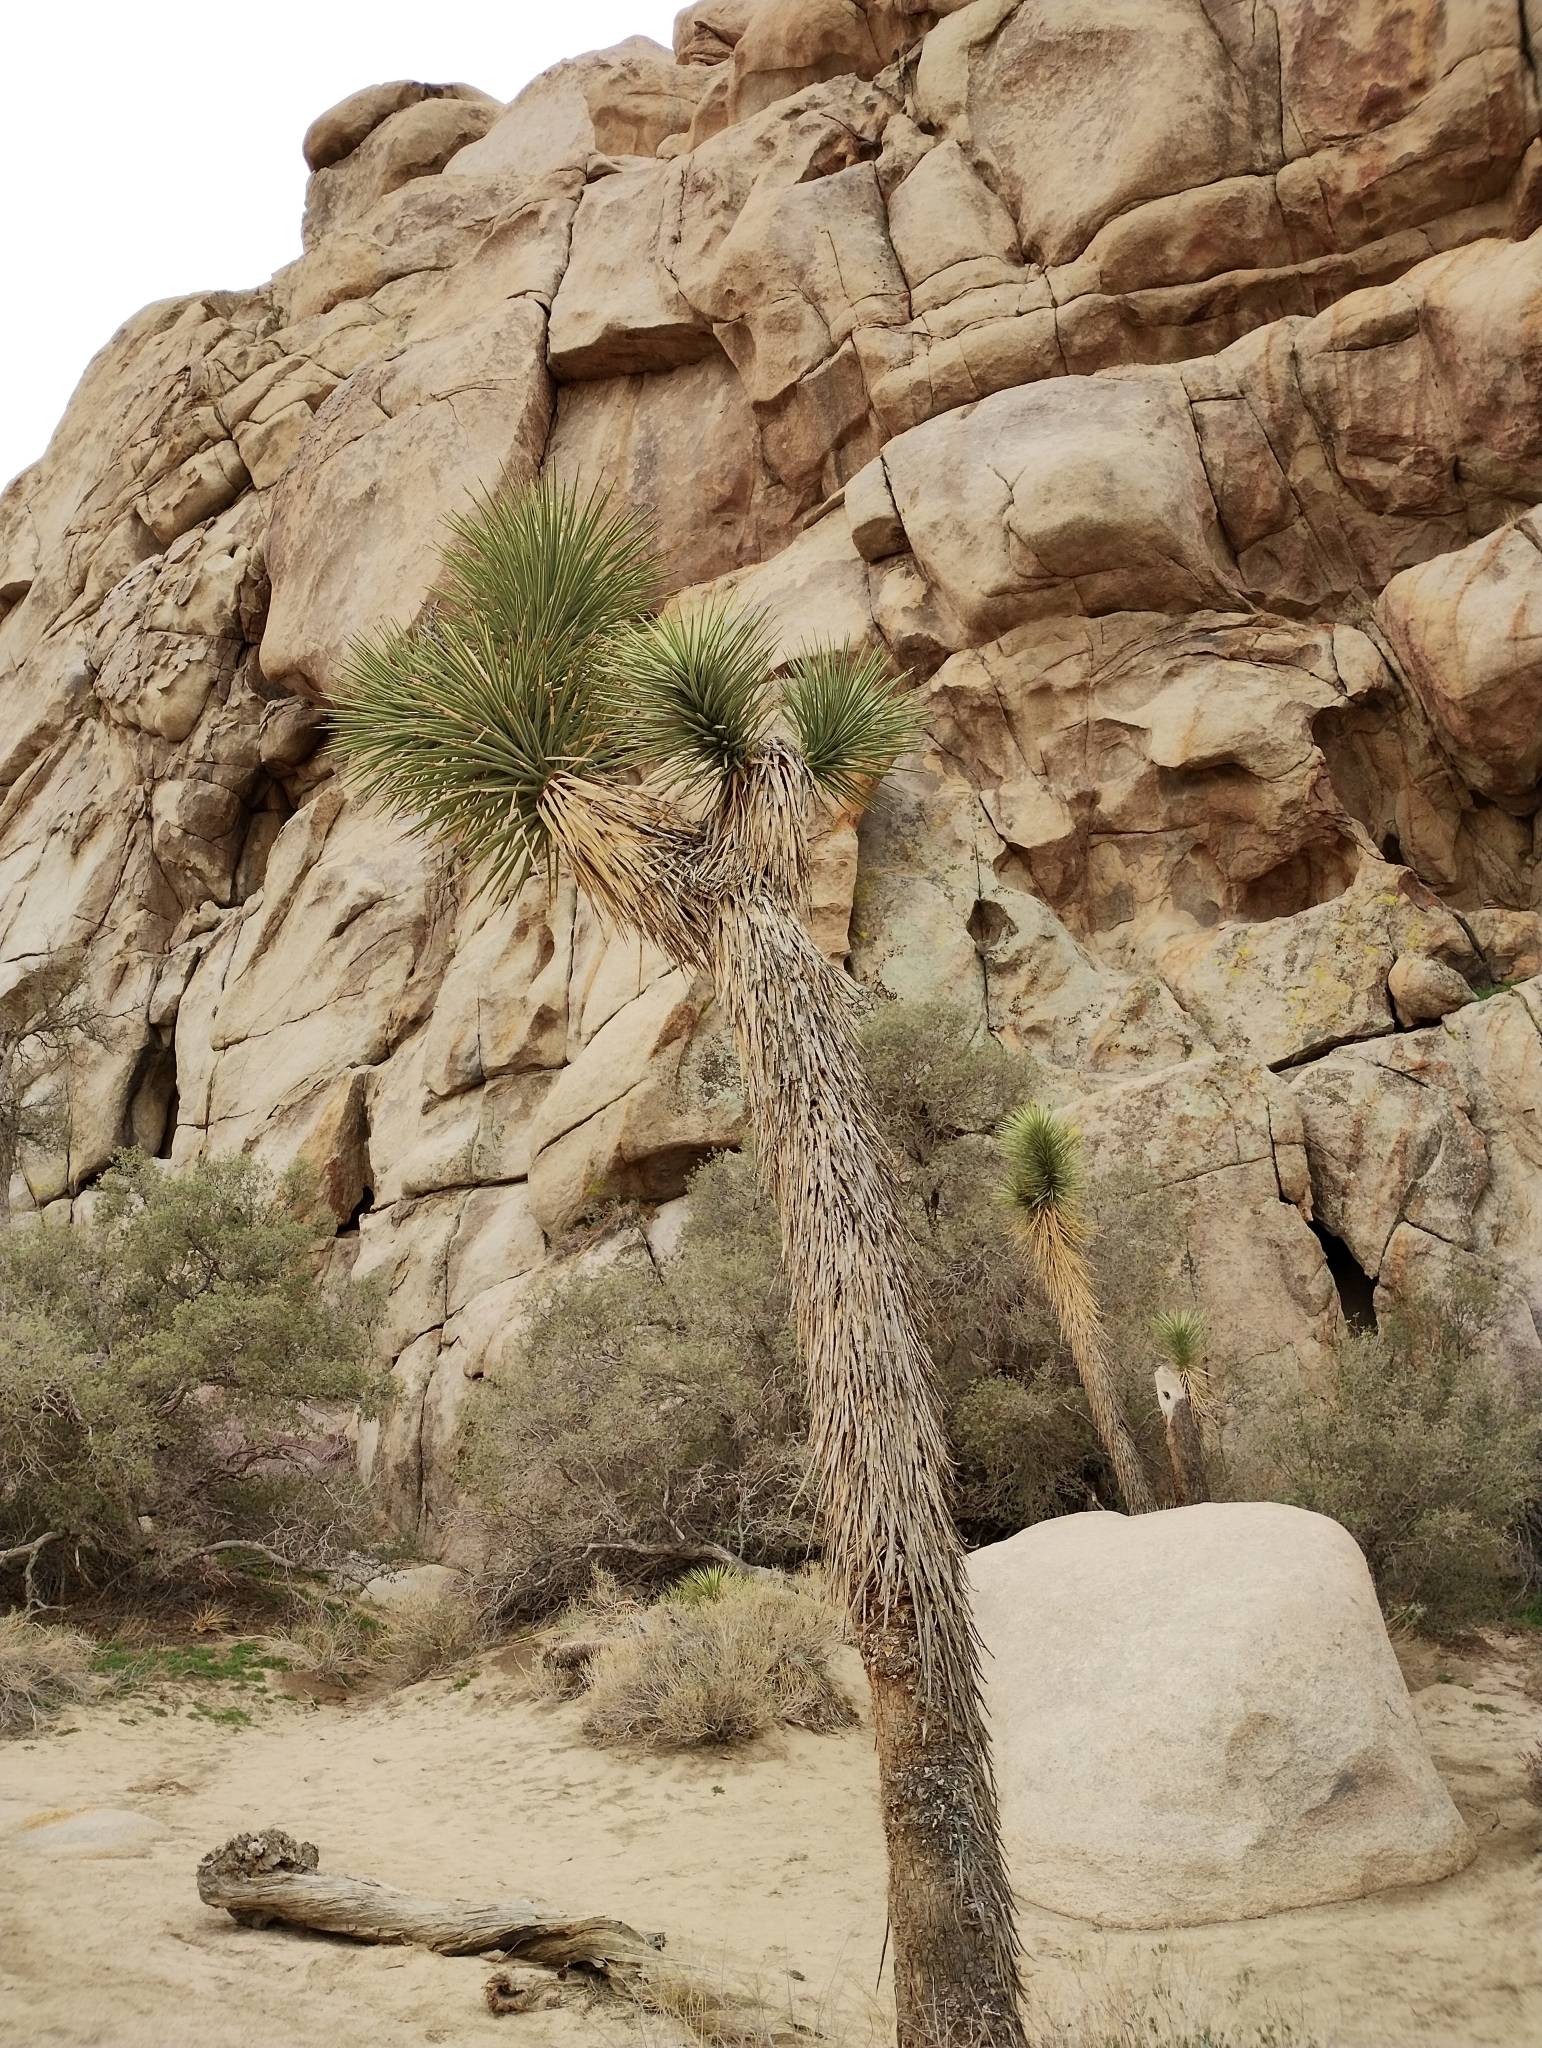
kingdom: Plantae
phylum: Tracheophyta
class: Liliopsida
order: Asparagales
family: Asparagaceae
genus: Yucca
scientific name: Yucca brevifolia
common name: Joshua tree
